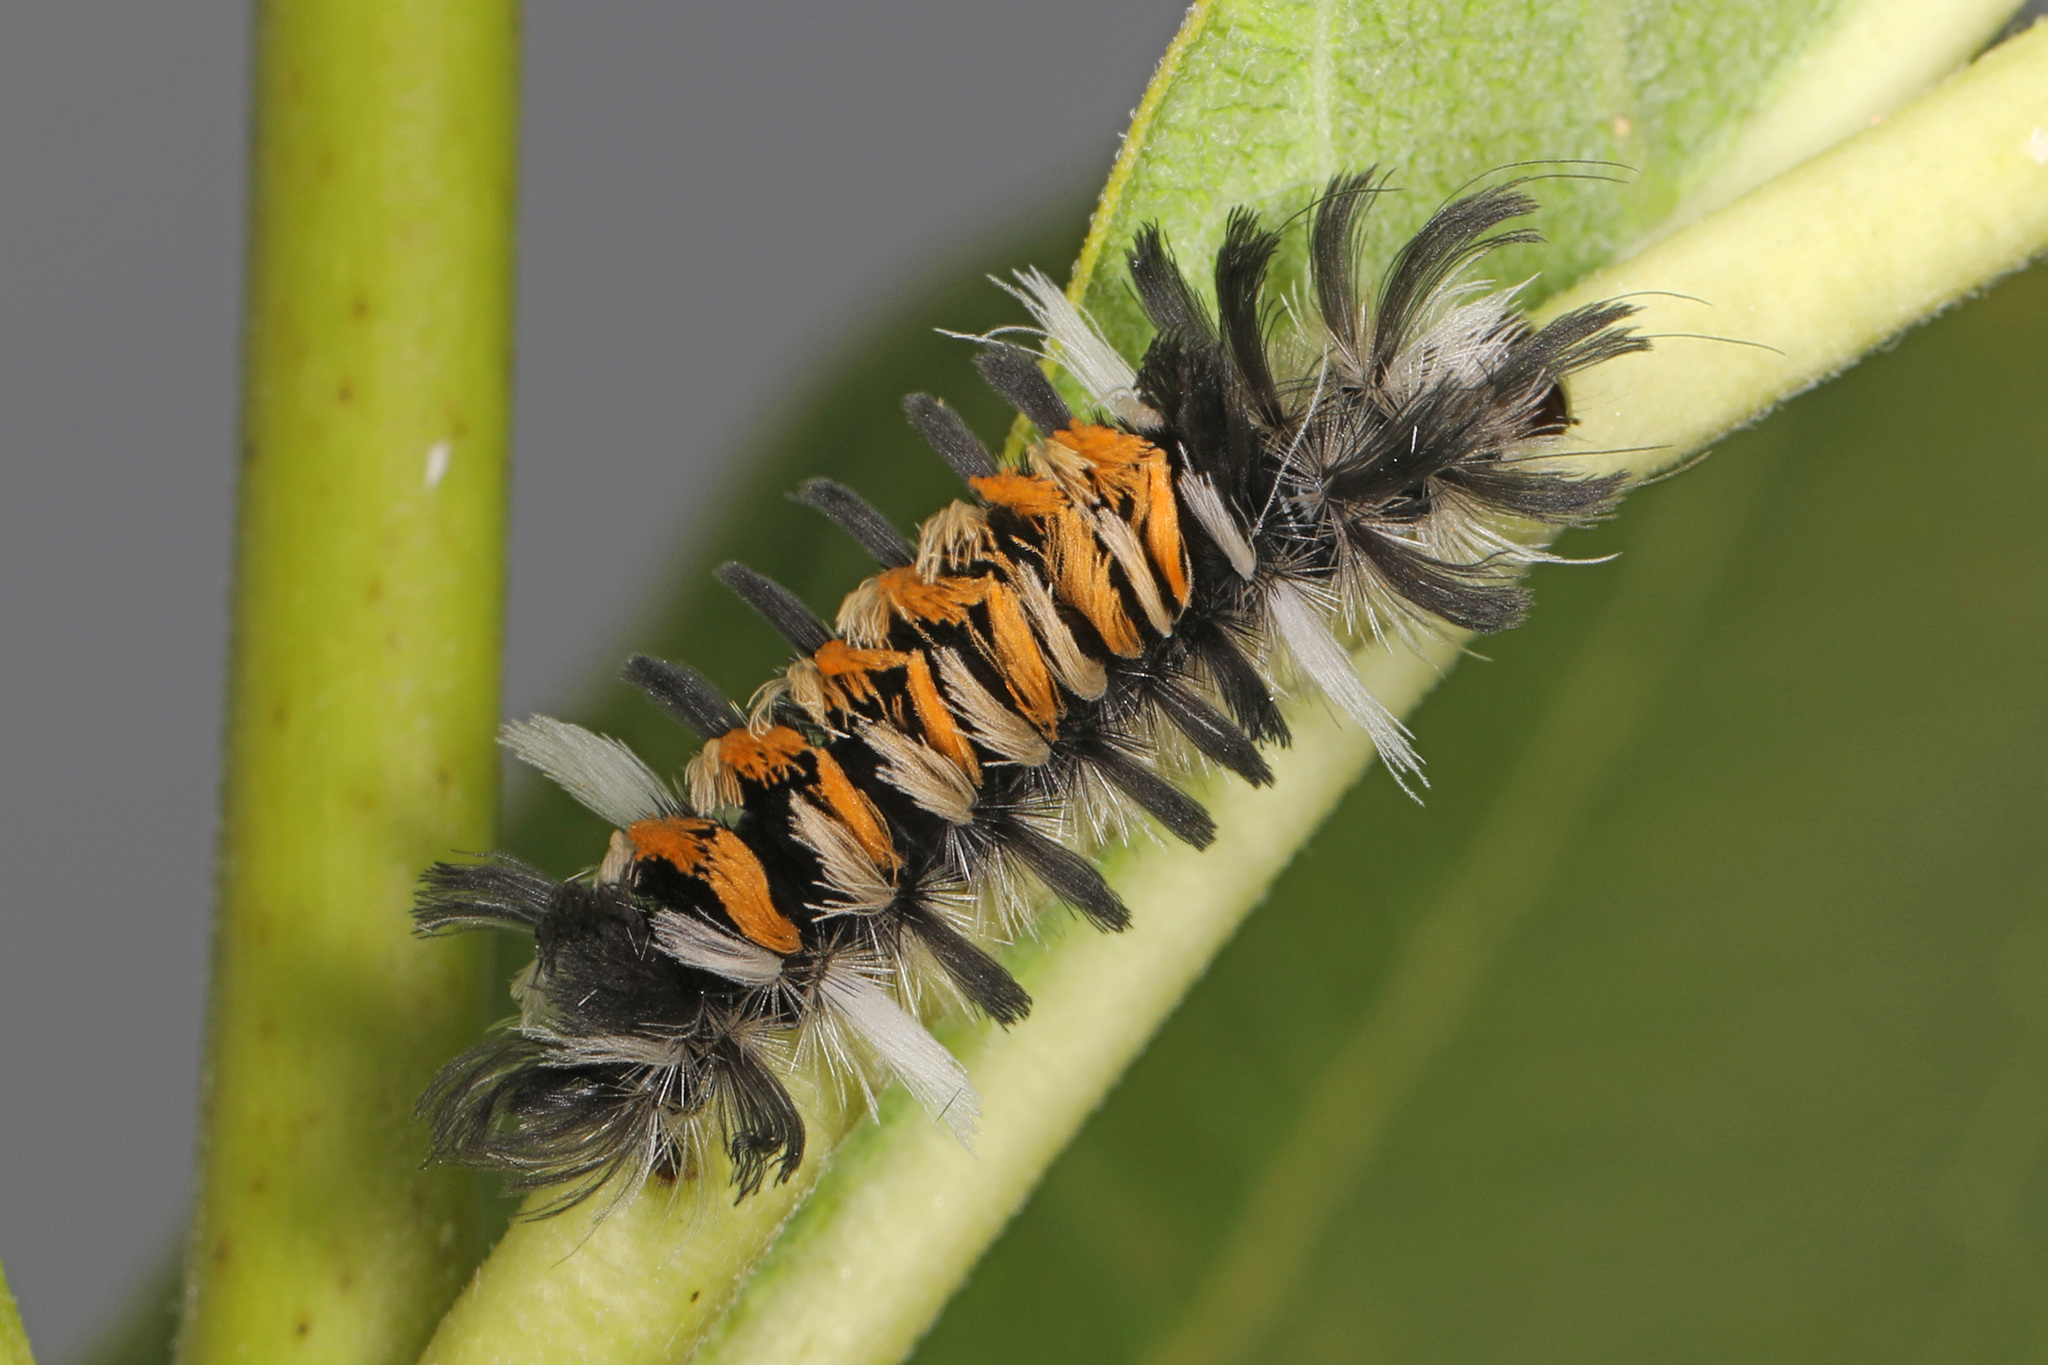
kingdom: Animalia
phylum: Arthropoda
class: Insecta
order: Lepidoptera
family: Erebidae
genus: Euchaetes
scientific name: Euchaetes egle
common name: Milkweed tussock moth
